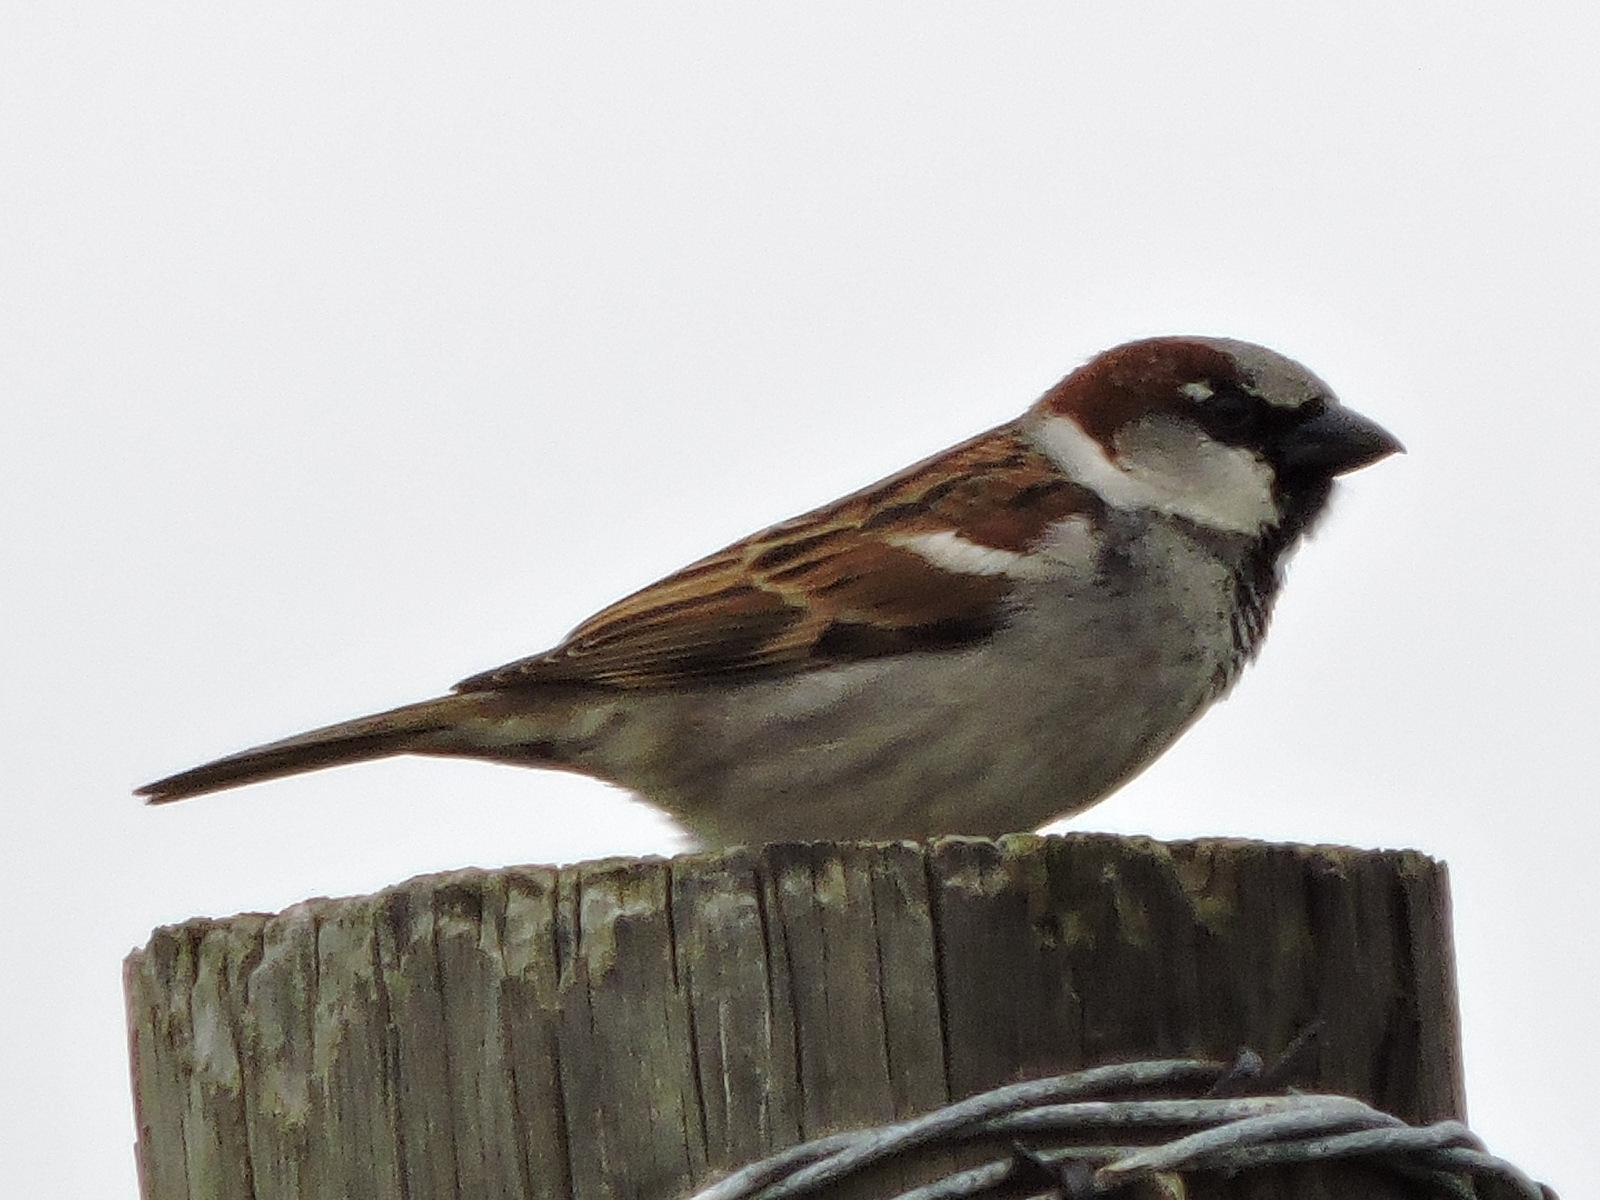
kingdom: Animalia
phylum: Chordata
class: Aves
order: Passeriformes
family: Passeridae
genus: Passer
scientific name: Passer domesticus
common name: House sparrow
